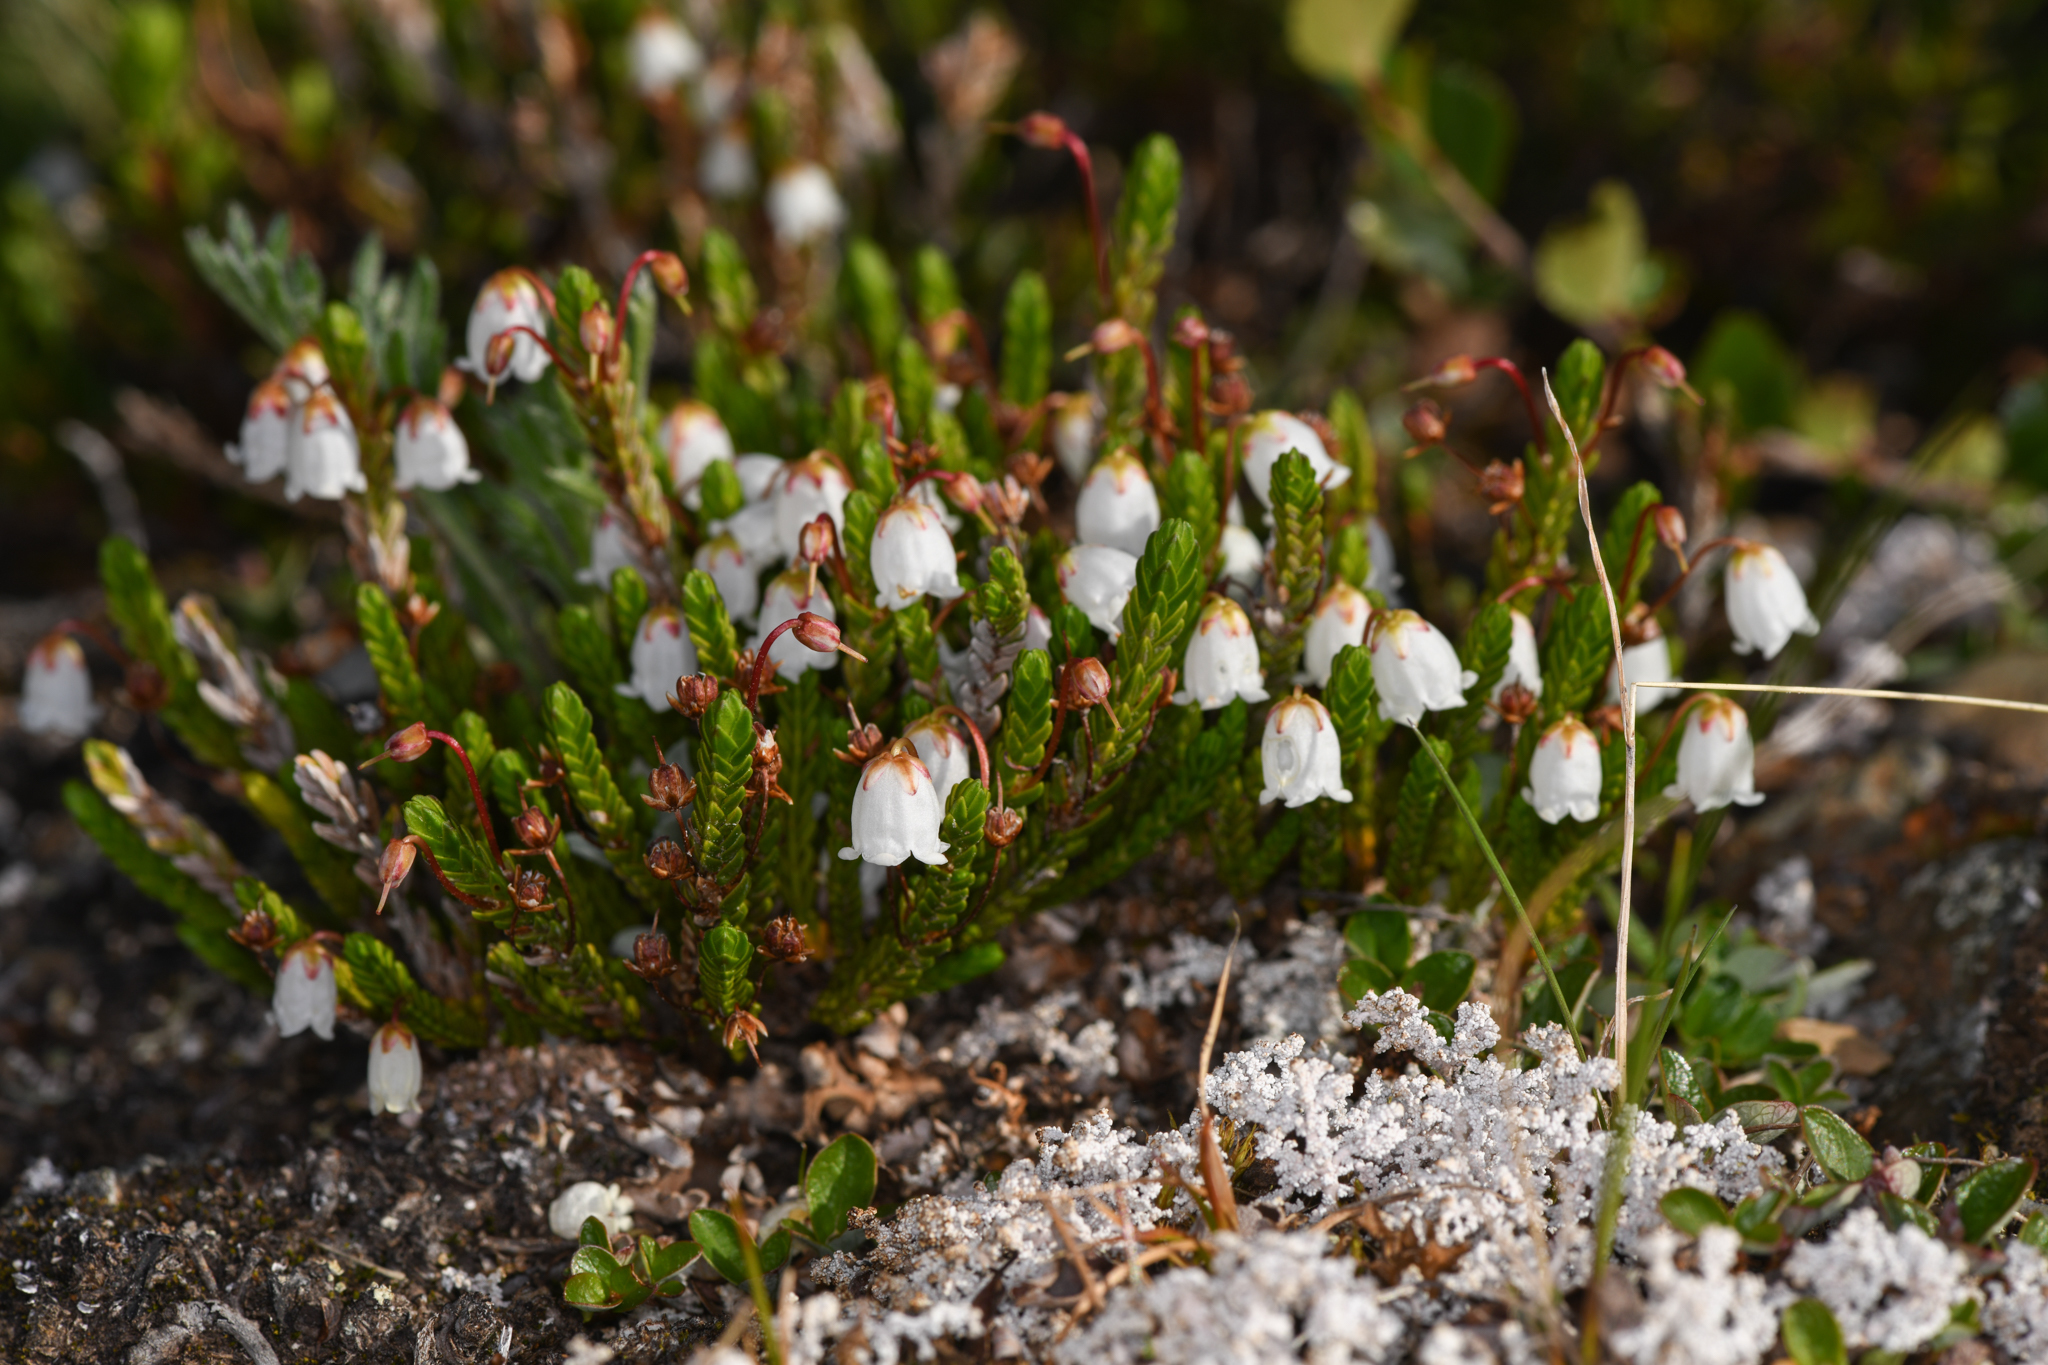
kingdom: Plantae
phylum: Tracheophyta
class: Magnoliopsida
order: Ericales
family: Ericaceae
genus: Cassiope
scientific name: Cassiope tetragona
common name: Arctic bell heather
